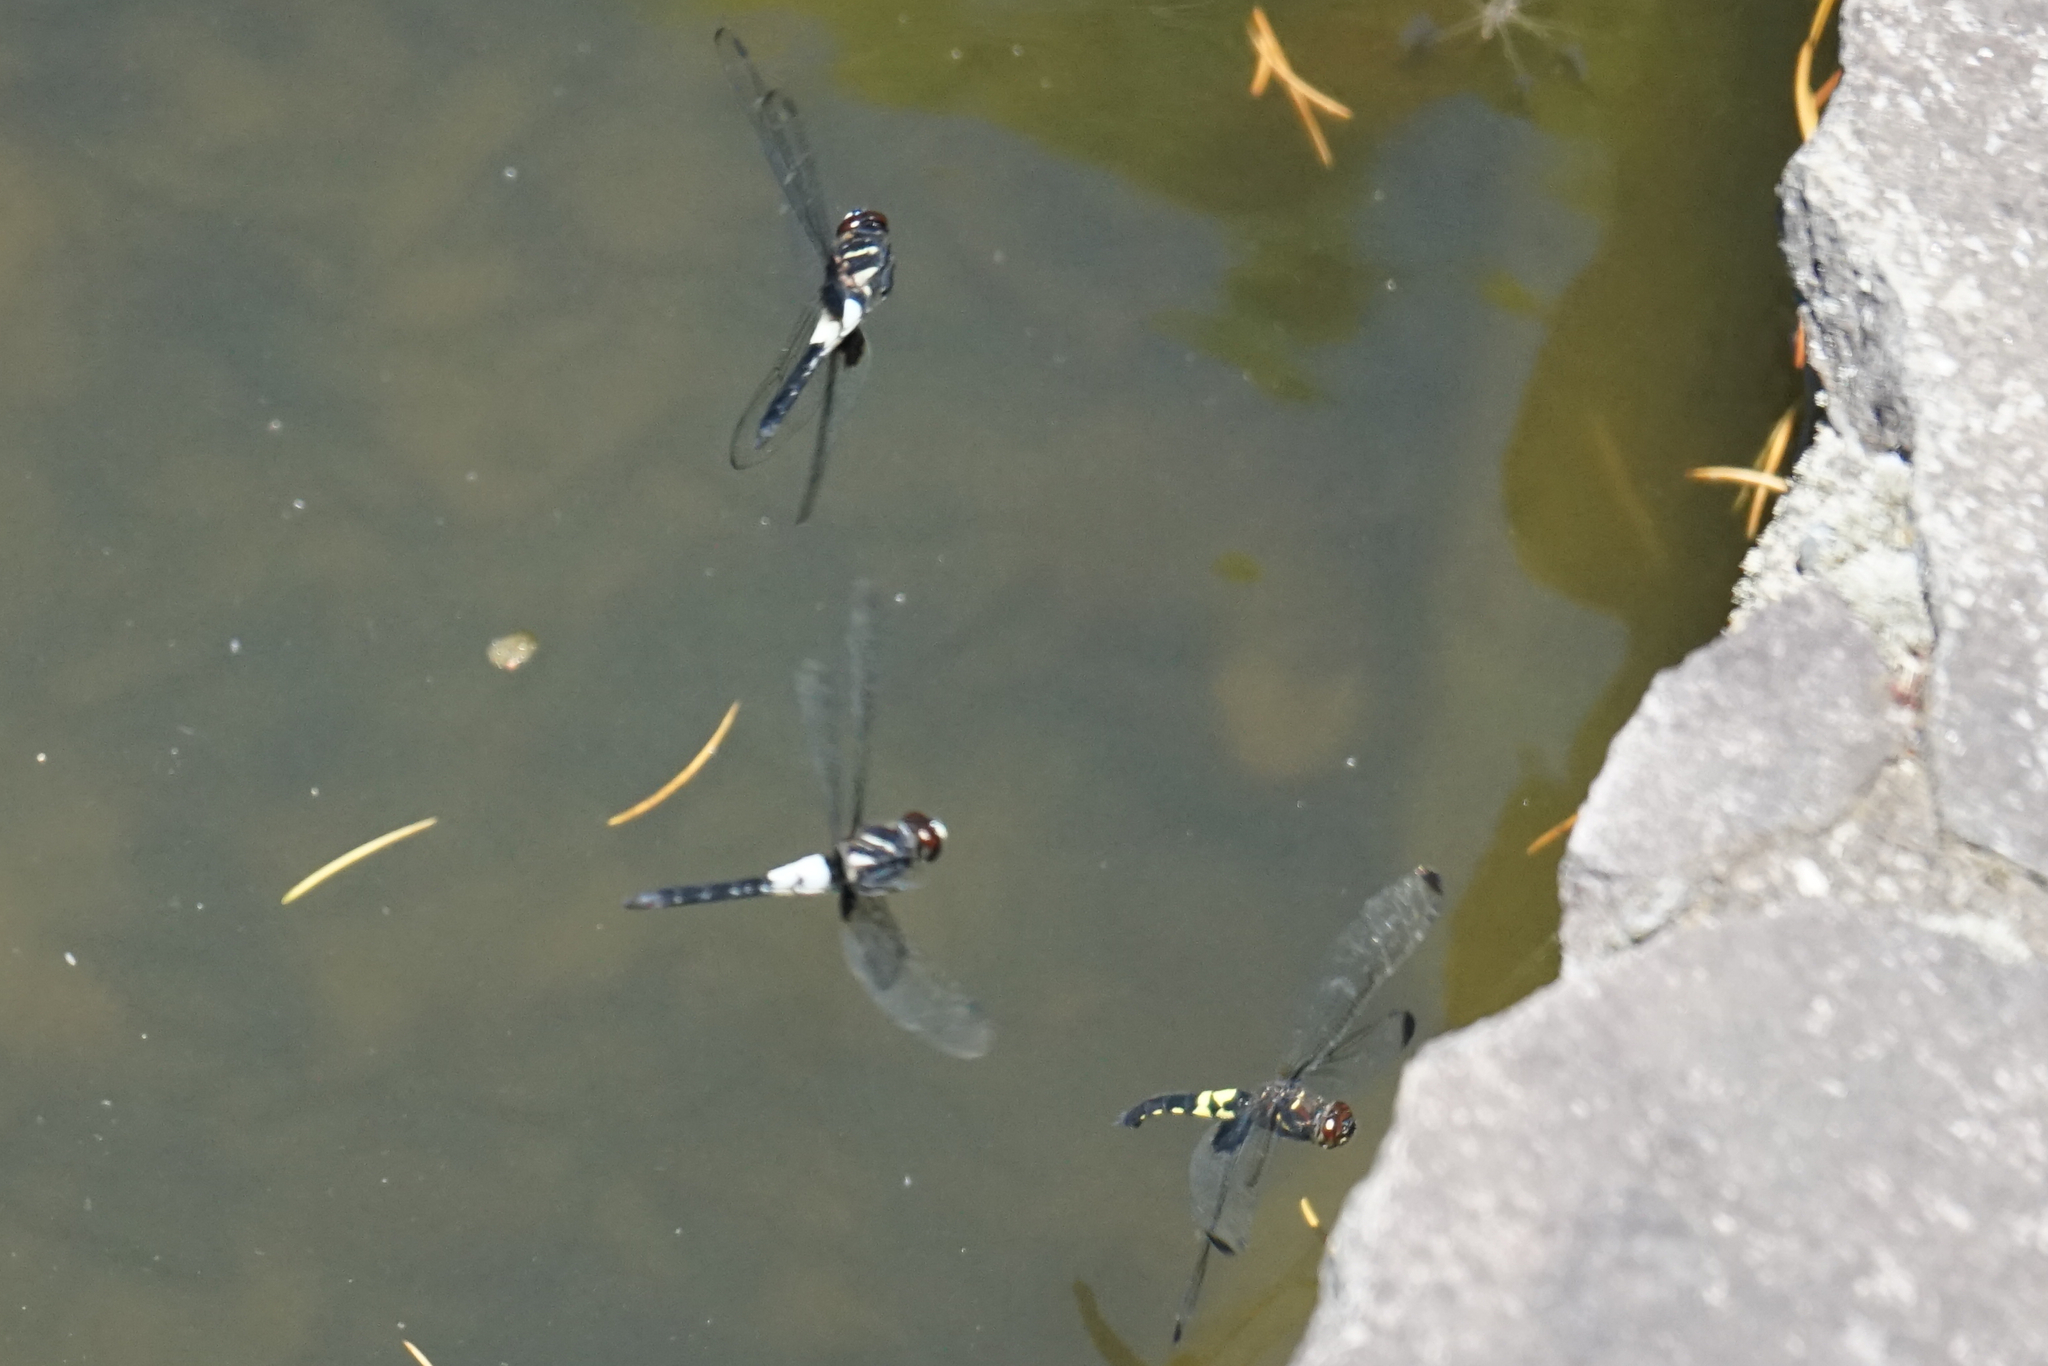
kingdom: Animalia
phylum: Arthropoda
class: Insecta
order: Odonata
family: Libellulidae
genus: Pseudothemis
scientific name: Pseudothemis zonata
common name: Pied skimmer
